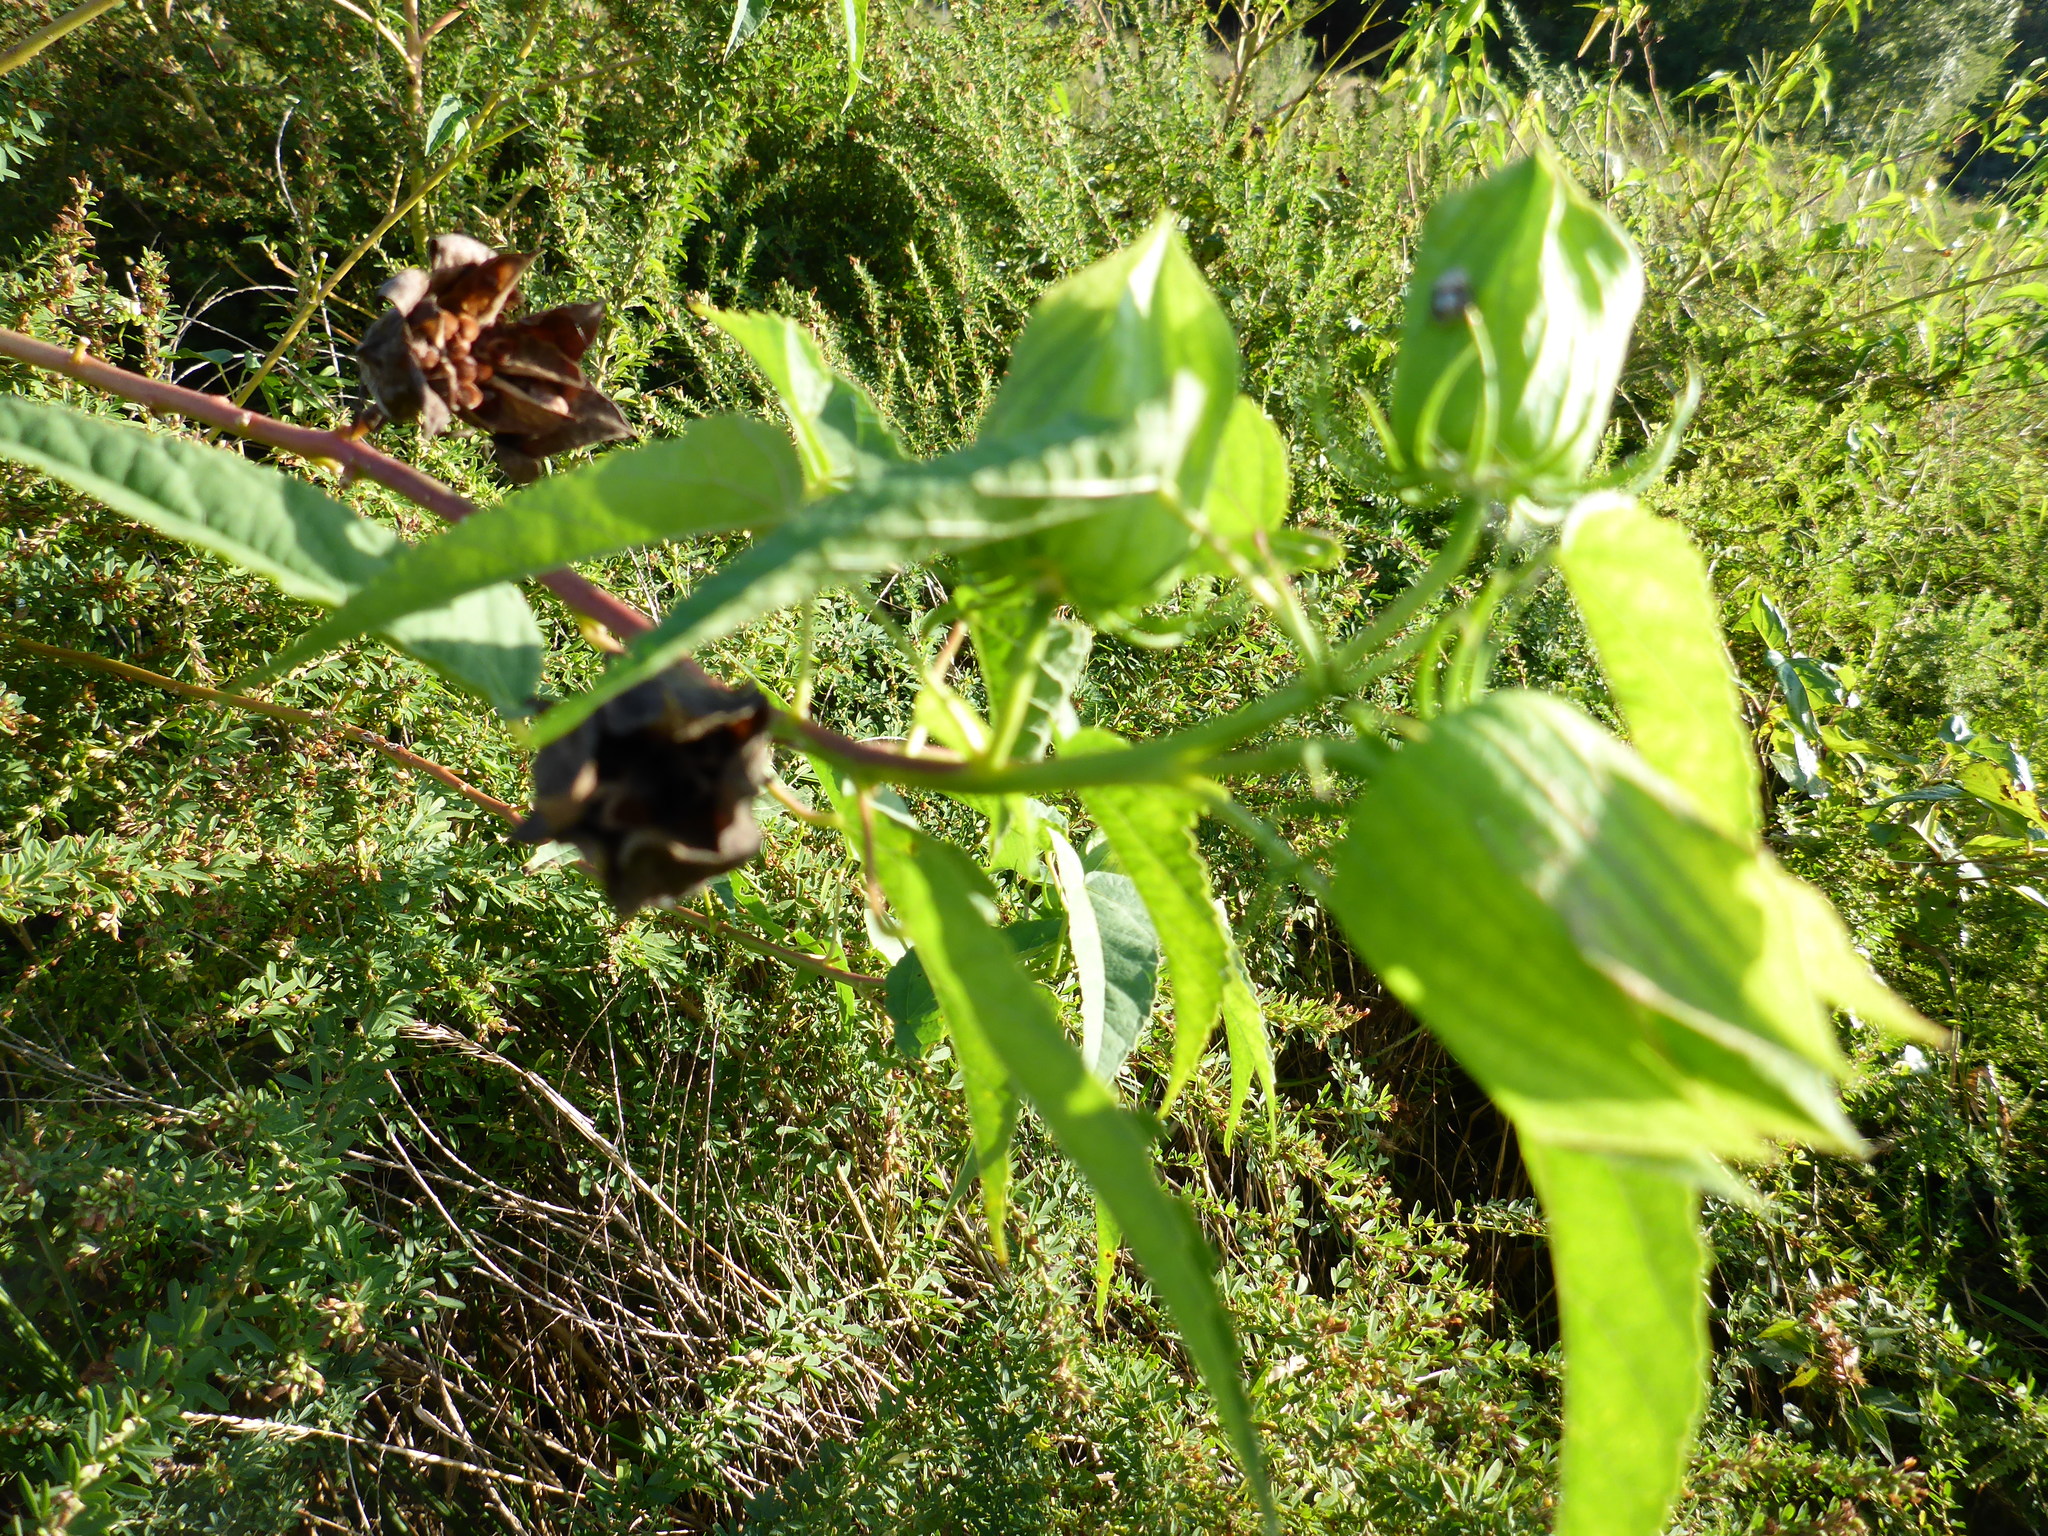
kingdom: Plantae
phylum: Tracheophyta
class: Magnoliopsida
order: Malvales
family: Malvaceae
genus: Hibiscus
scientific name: Hibiscus laevis
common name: Scarlet rose-mallow
